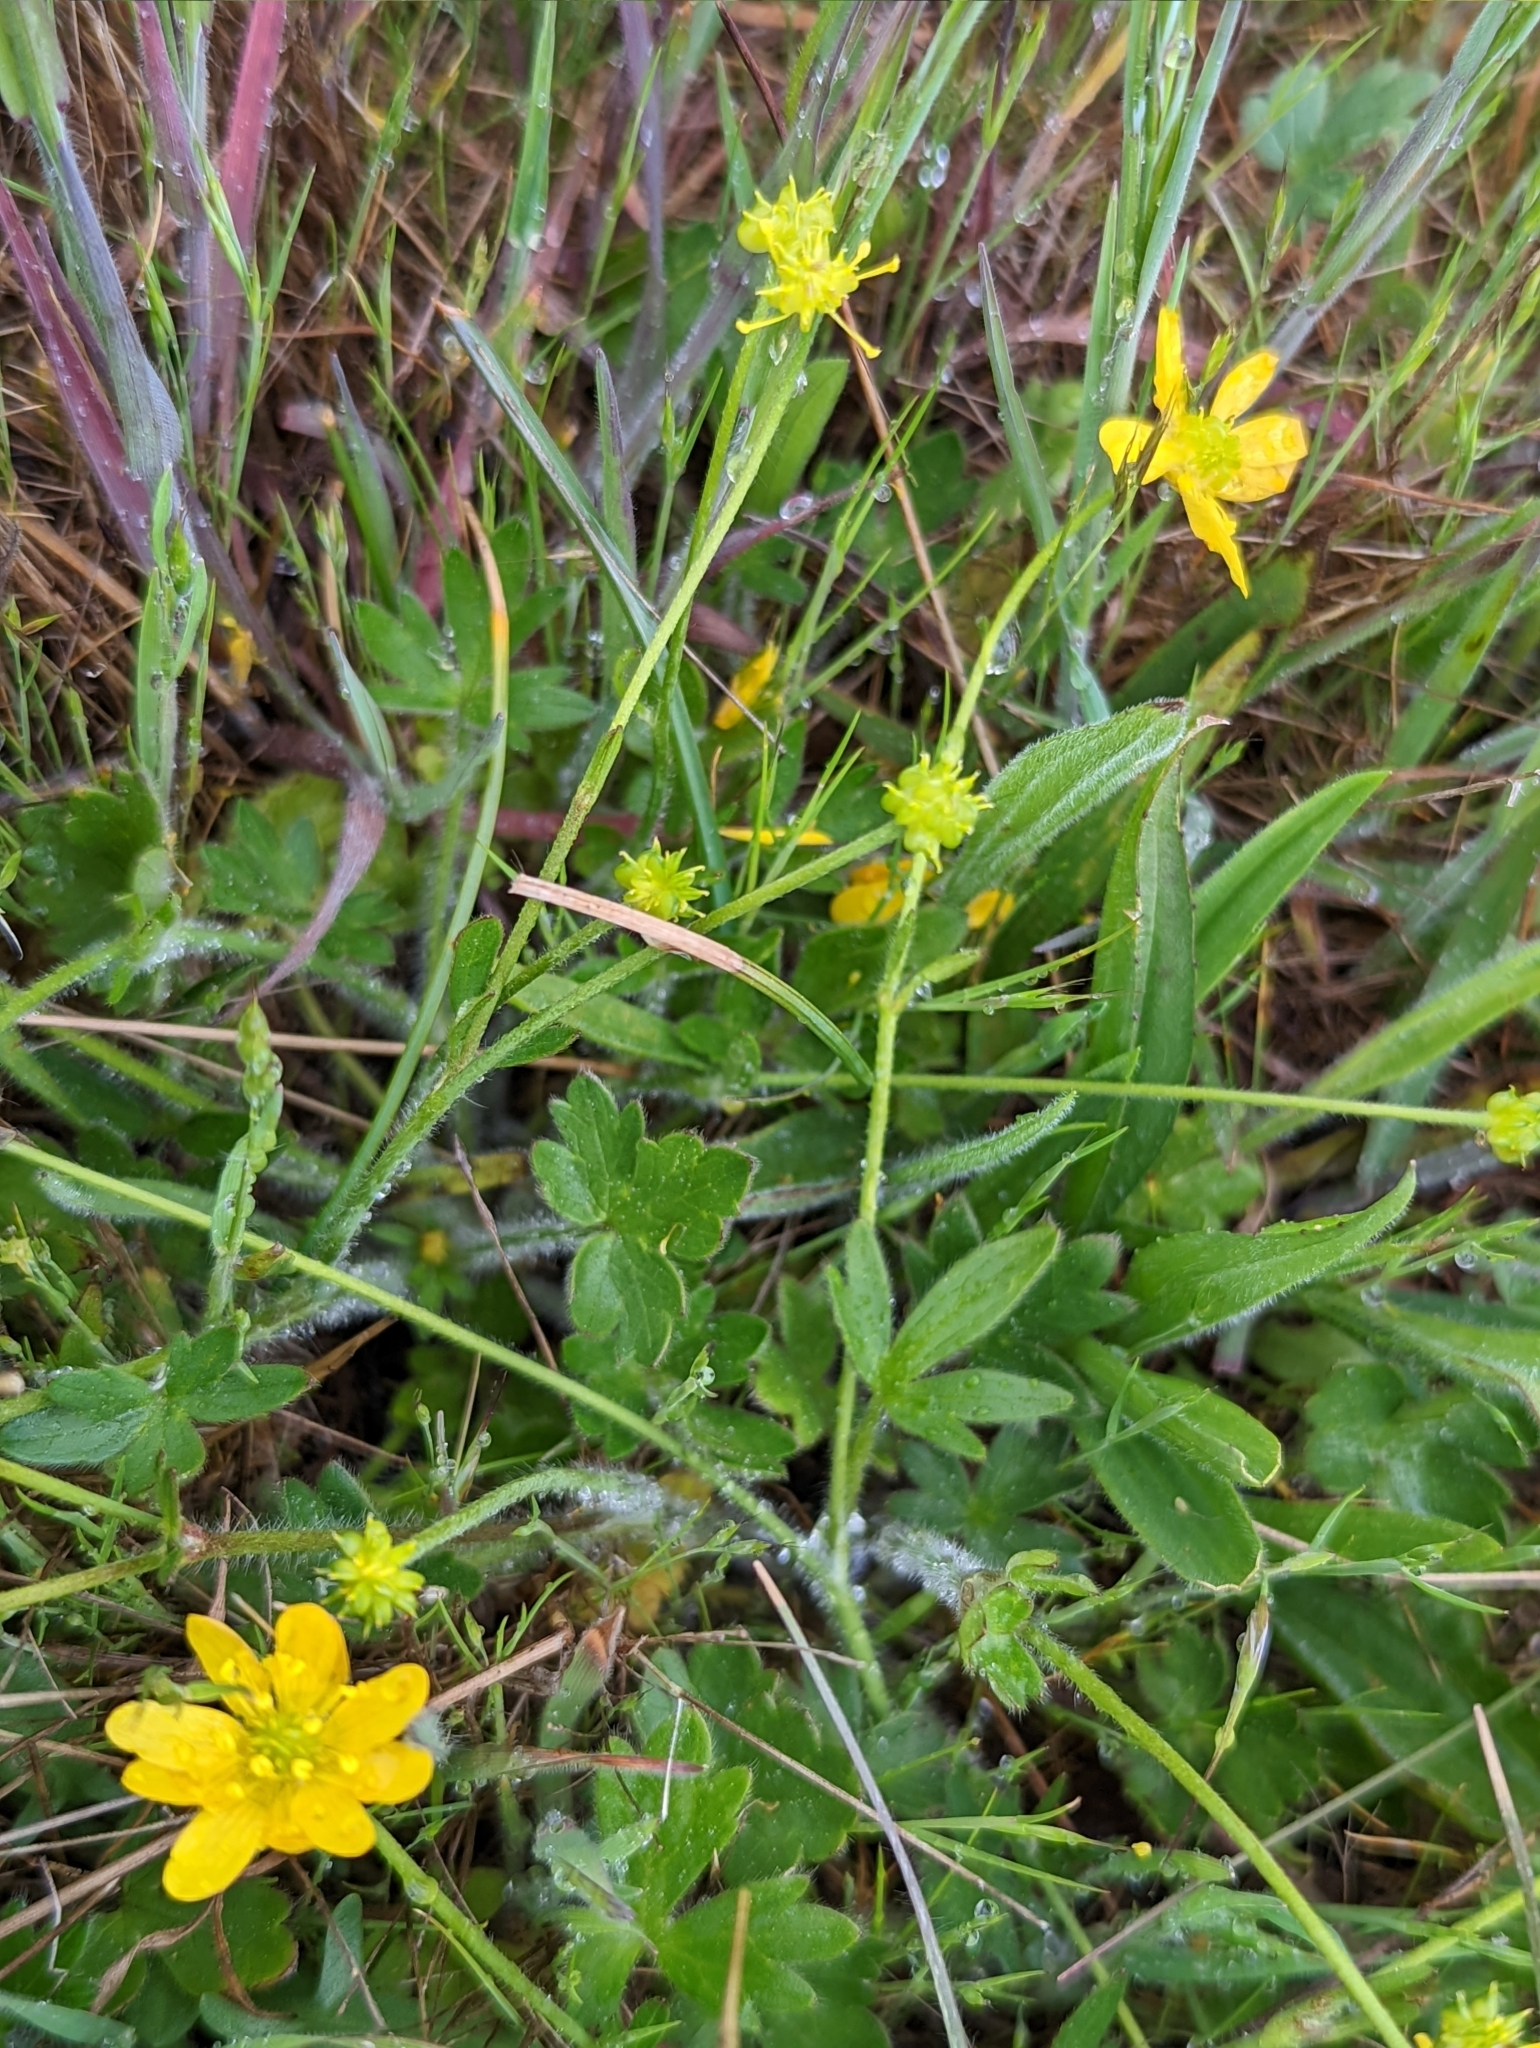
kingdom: Plantae
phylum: Tracheophyta
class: Magnoliopsida
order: Ranunculales
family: Ranunculaceae
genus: Ranunculus
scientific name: Ranunculus californicus
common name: California buttercup
